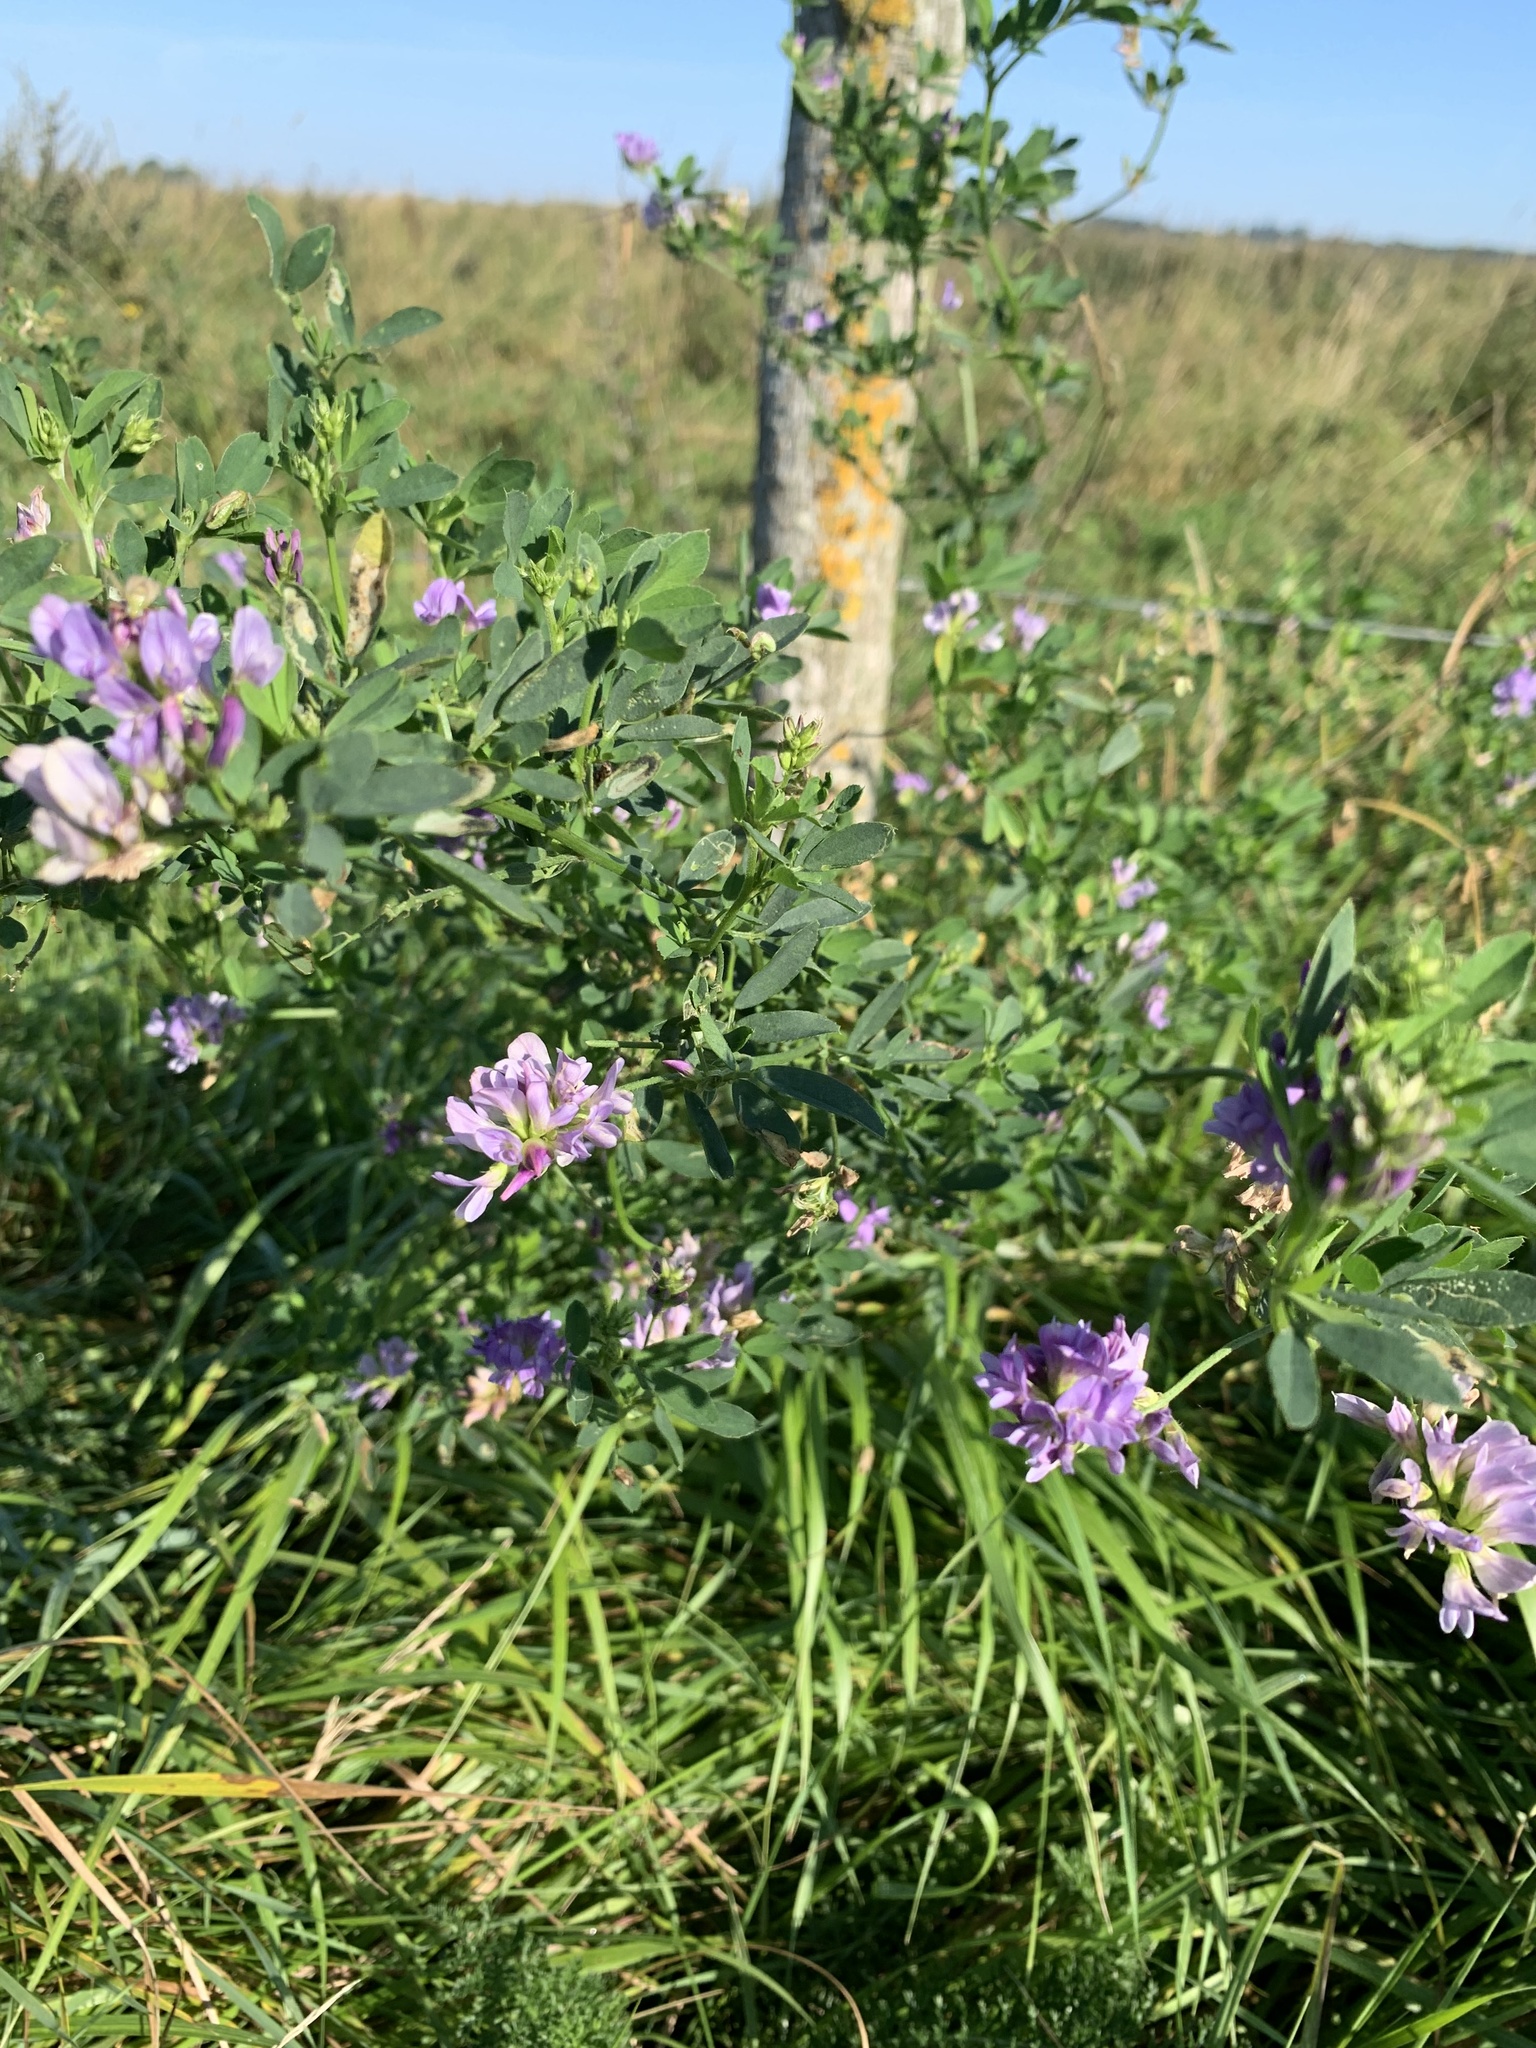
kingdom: Plantae
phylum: Tracheophyta
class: Magnoliopsida
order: Fabales
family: Fabaceae
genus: Medicago
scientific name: Medicago sativa
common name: Alfalfa
